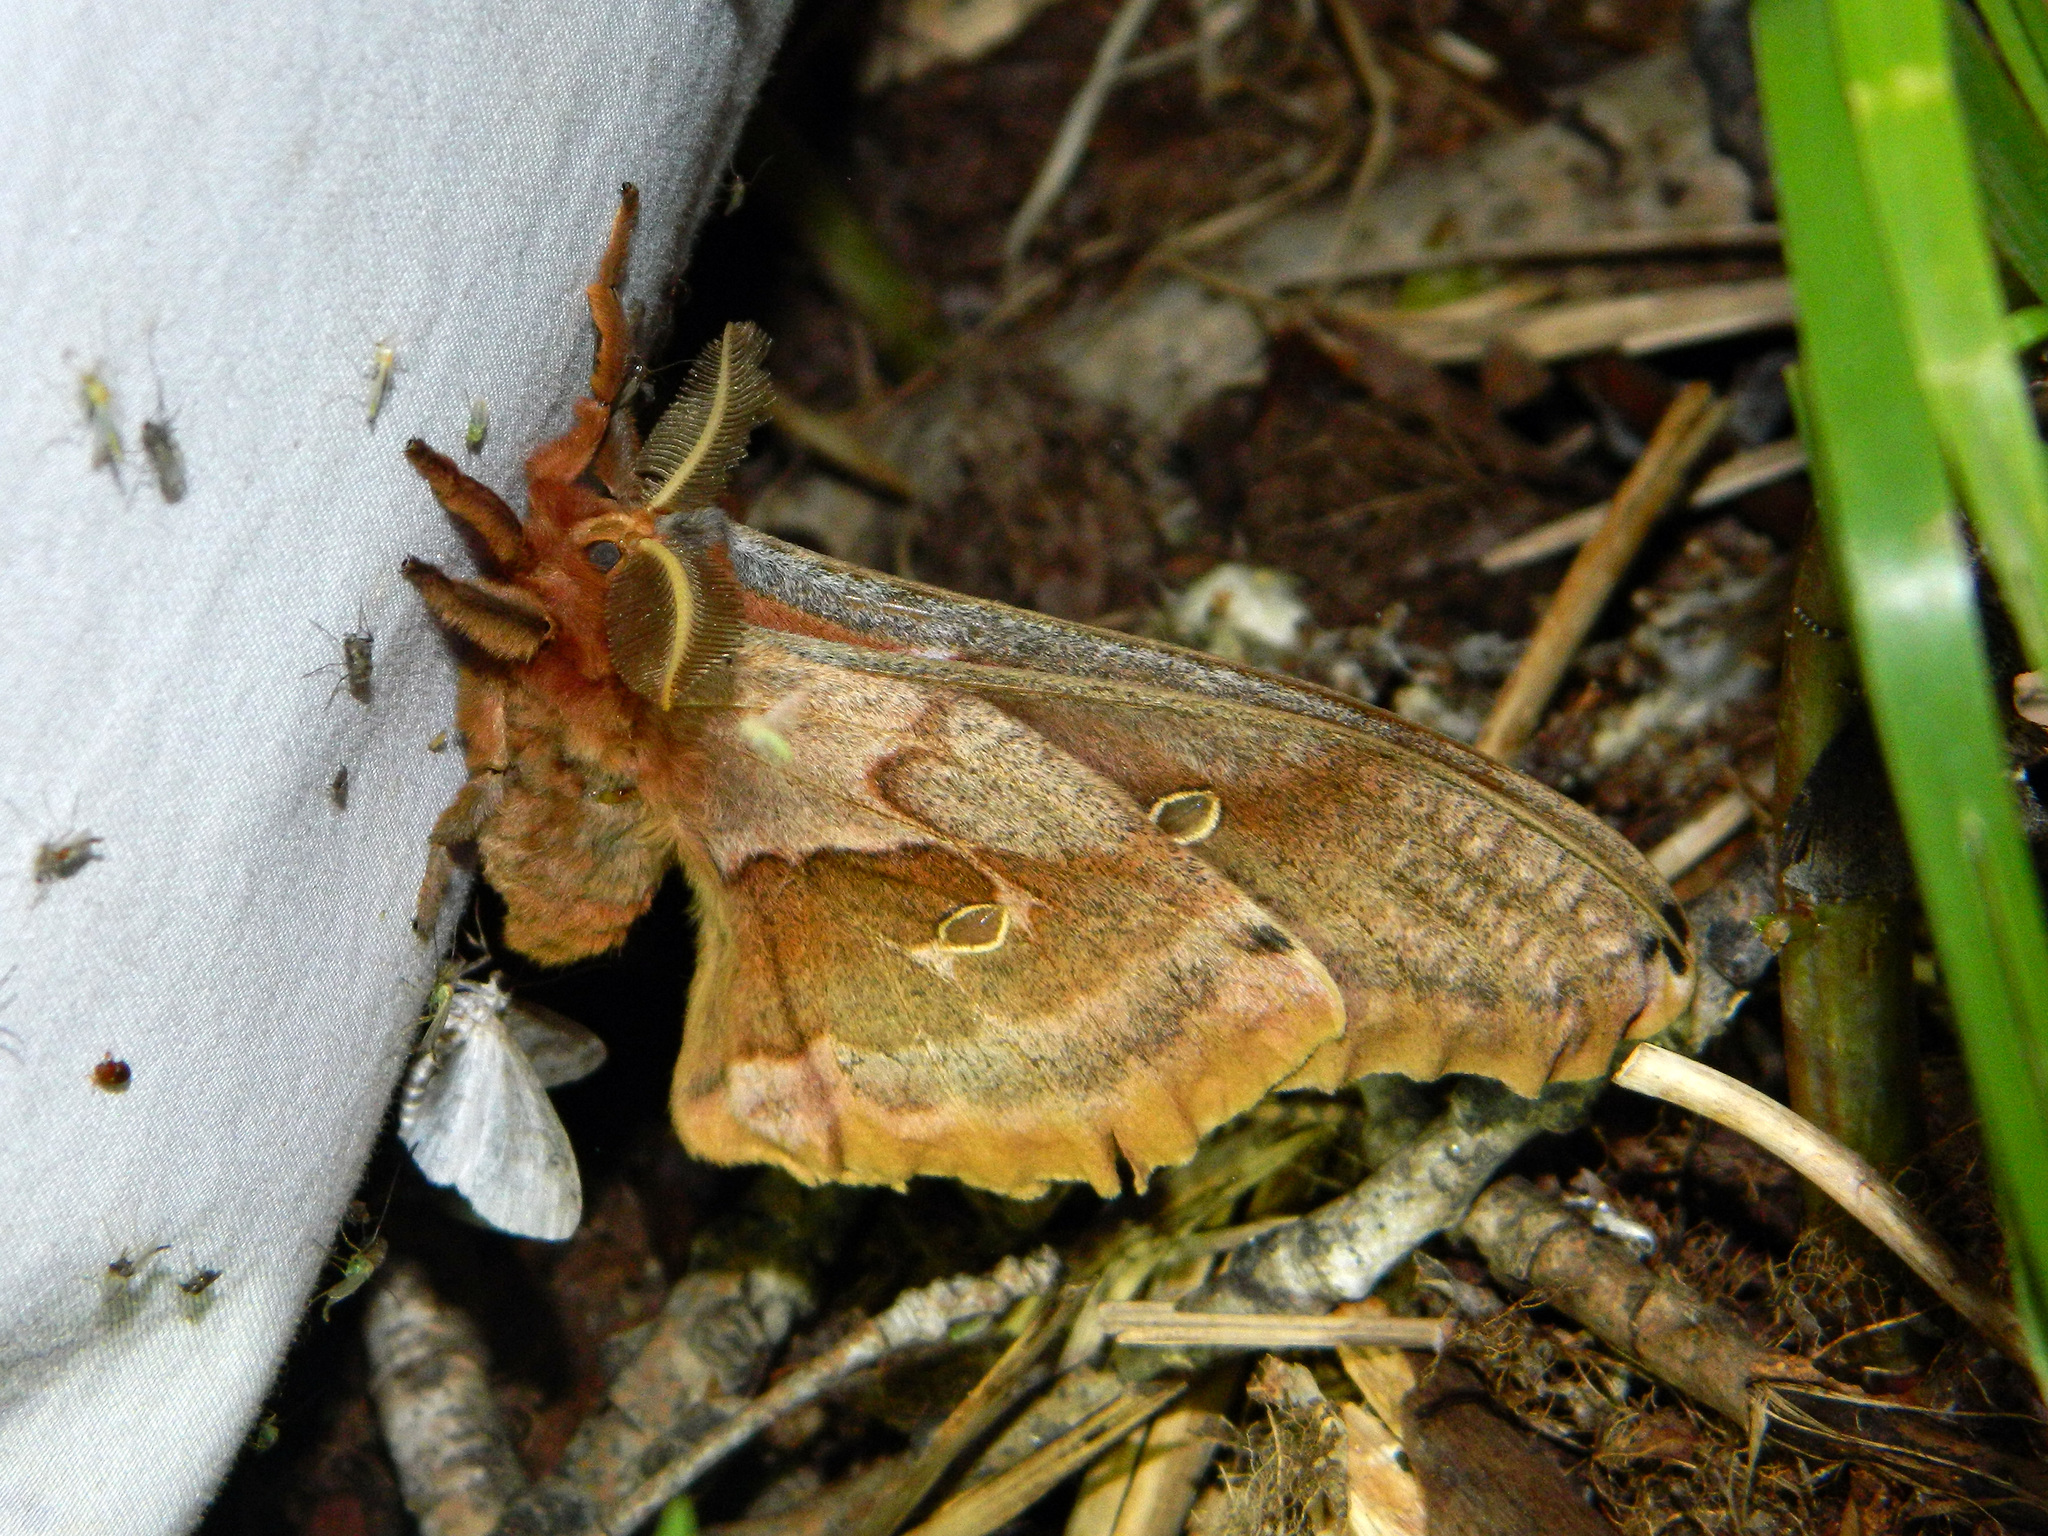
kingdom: Animalia
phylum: Arthropoda
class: Insecta
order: Lepidoptera
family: Saturniidae
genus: Antheraea
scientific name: Antheraea polyphemus
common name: Polyphemus moth
